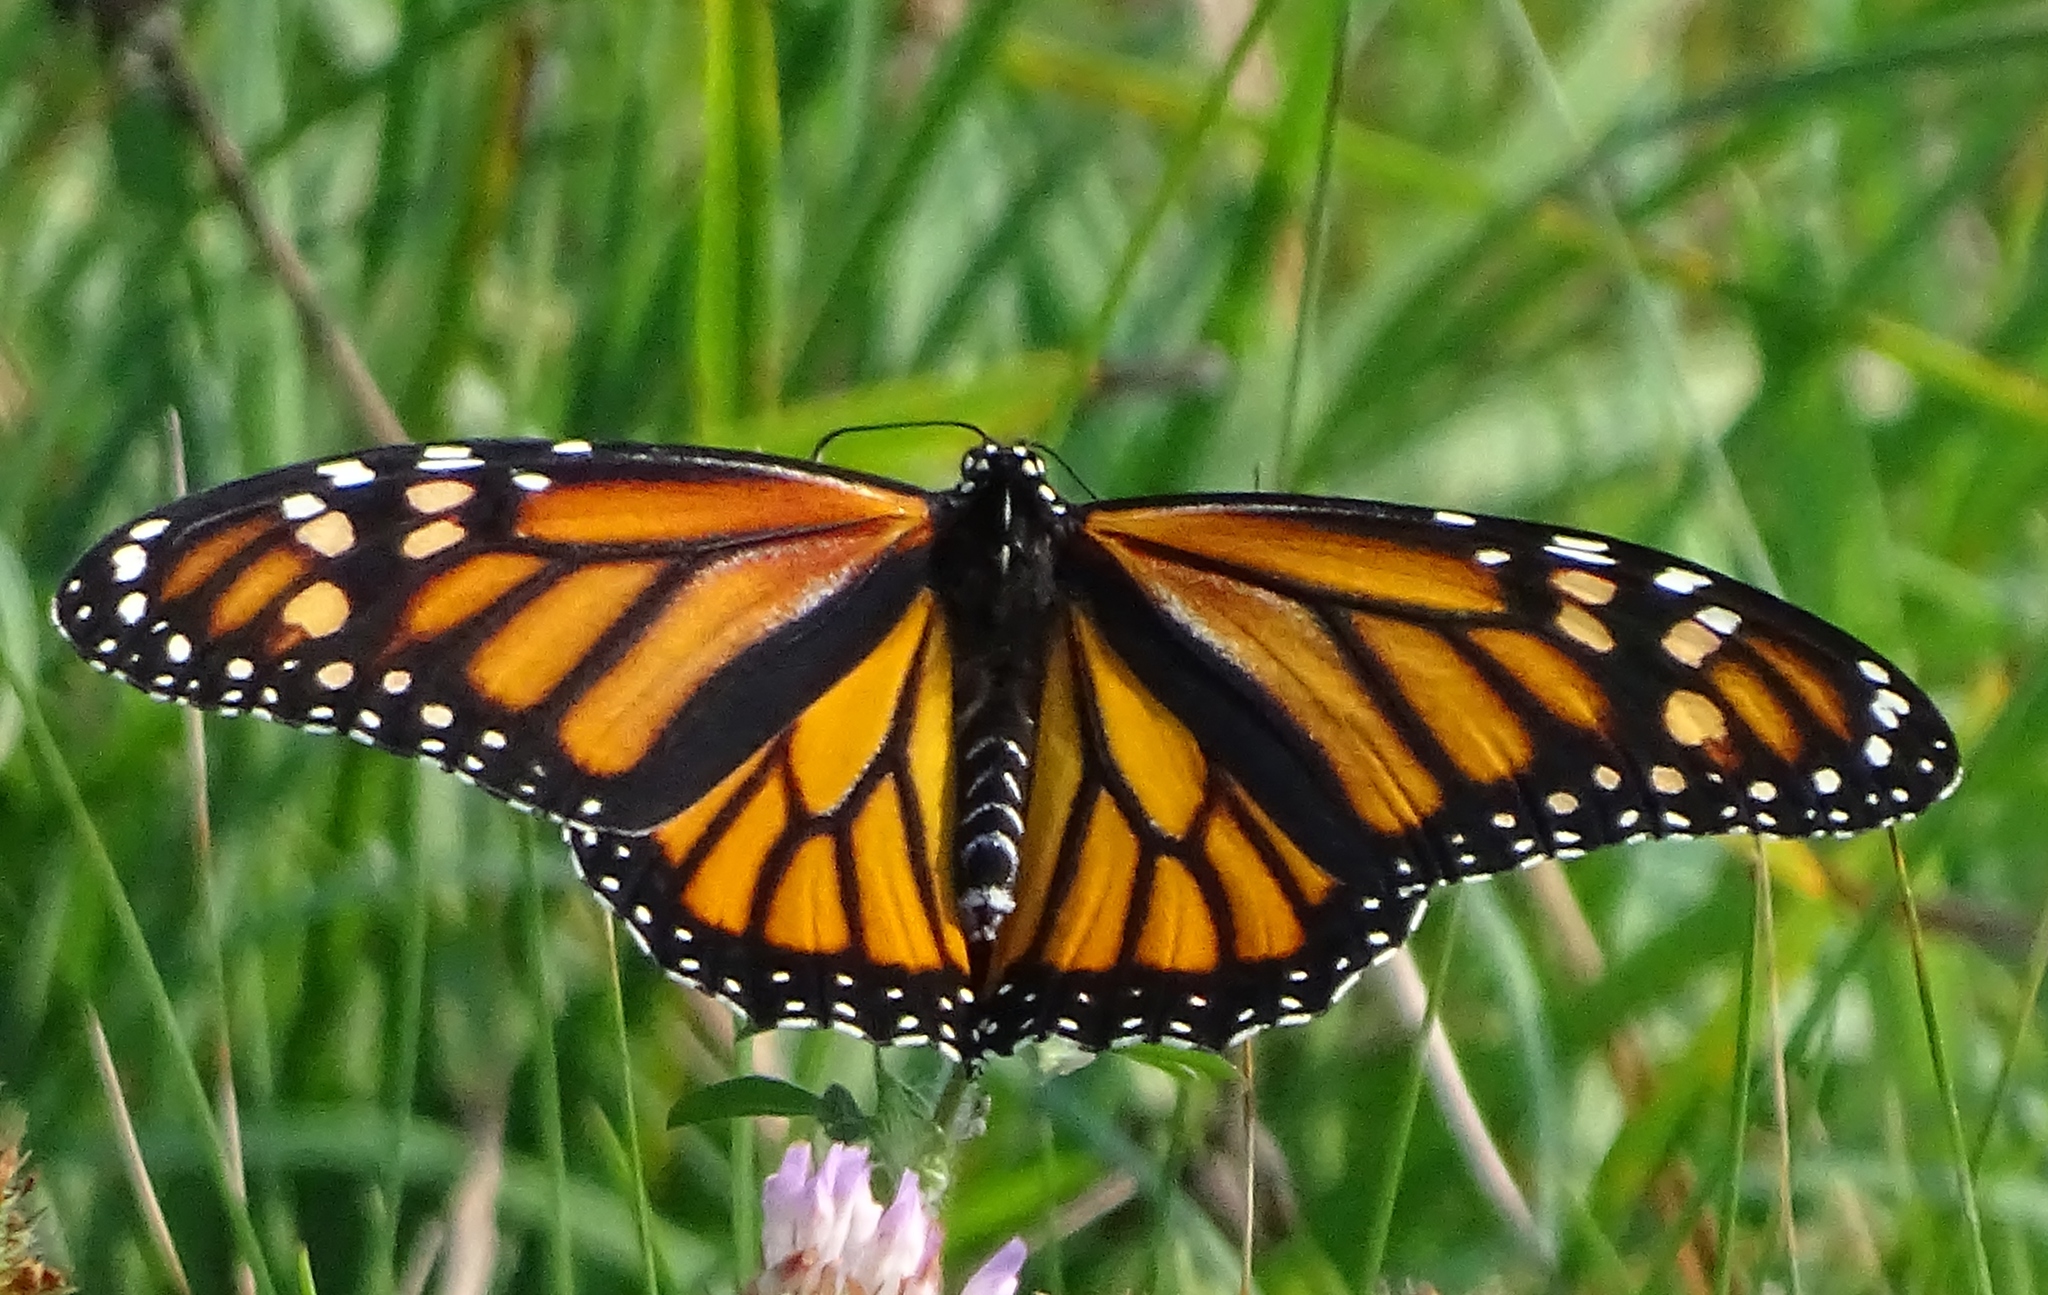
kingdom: Animalia
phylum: Arthropoda
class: Insecta
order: Lepidoptera
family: Nymphalidae
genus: Danaus
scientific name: Danaus plexippus
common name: Monarch
